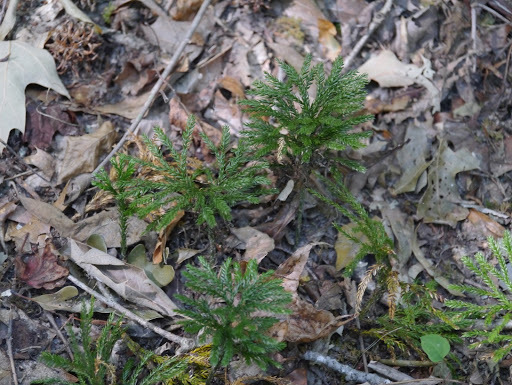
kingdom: Plantae
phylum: Tracheophyta
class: Lycopodiopsida
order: Lycopodiales
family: Lycopodiaceae
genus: Dendrolycopodium
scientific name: Dendrolycopodium obscurum
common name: Common ground-pine
